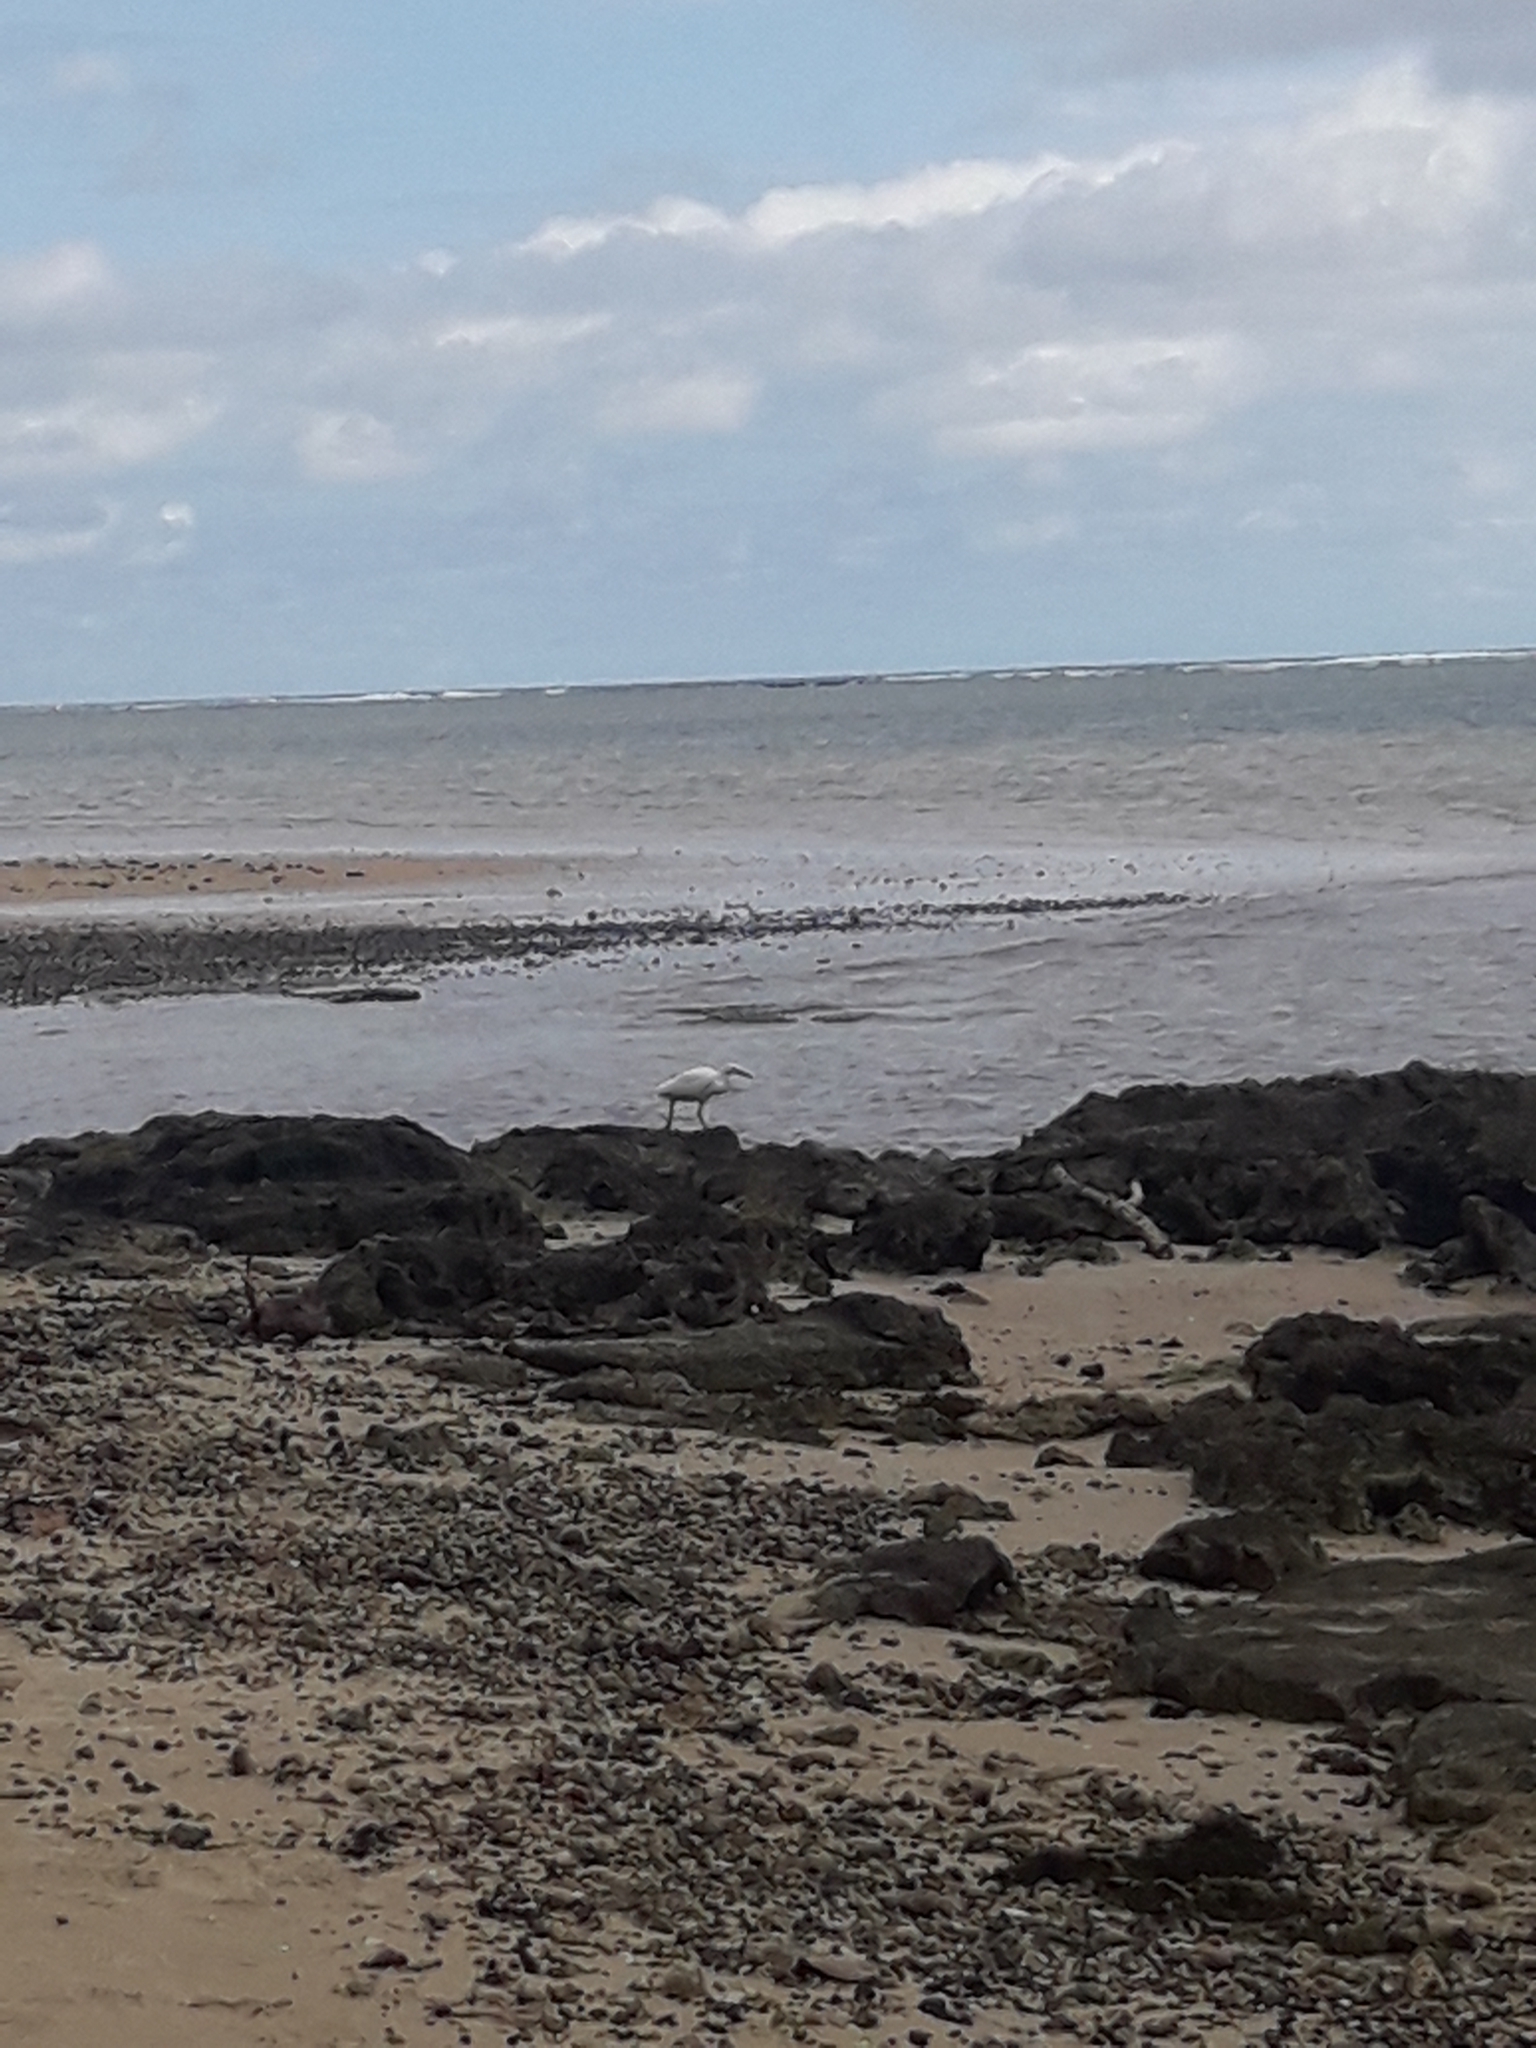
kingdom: Animalia
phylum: Chordata
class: Aves
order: Pelecaniformes
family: Ardeidae
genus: Egretta
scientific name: Egretta sacra
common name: Pacific reef heron
